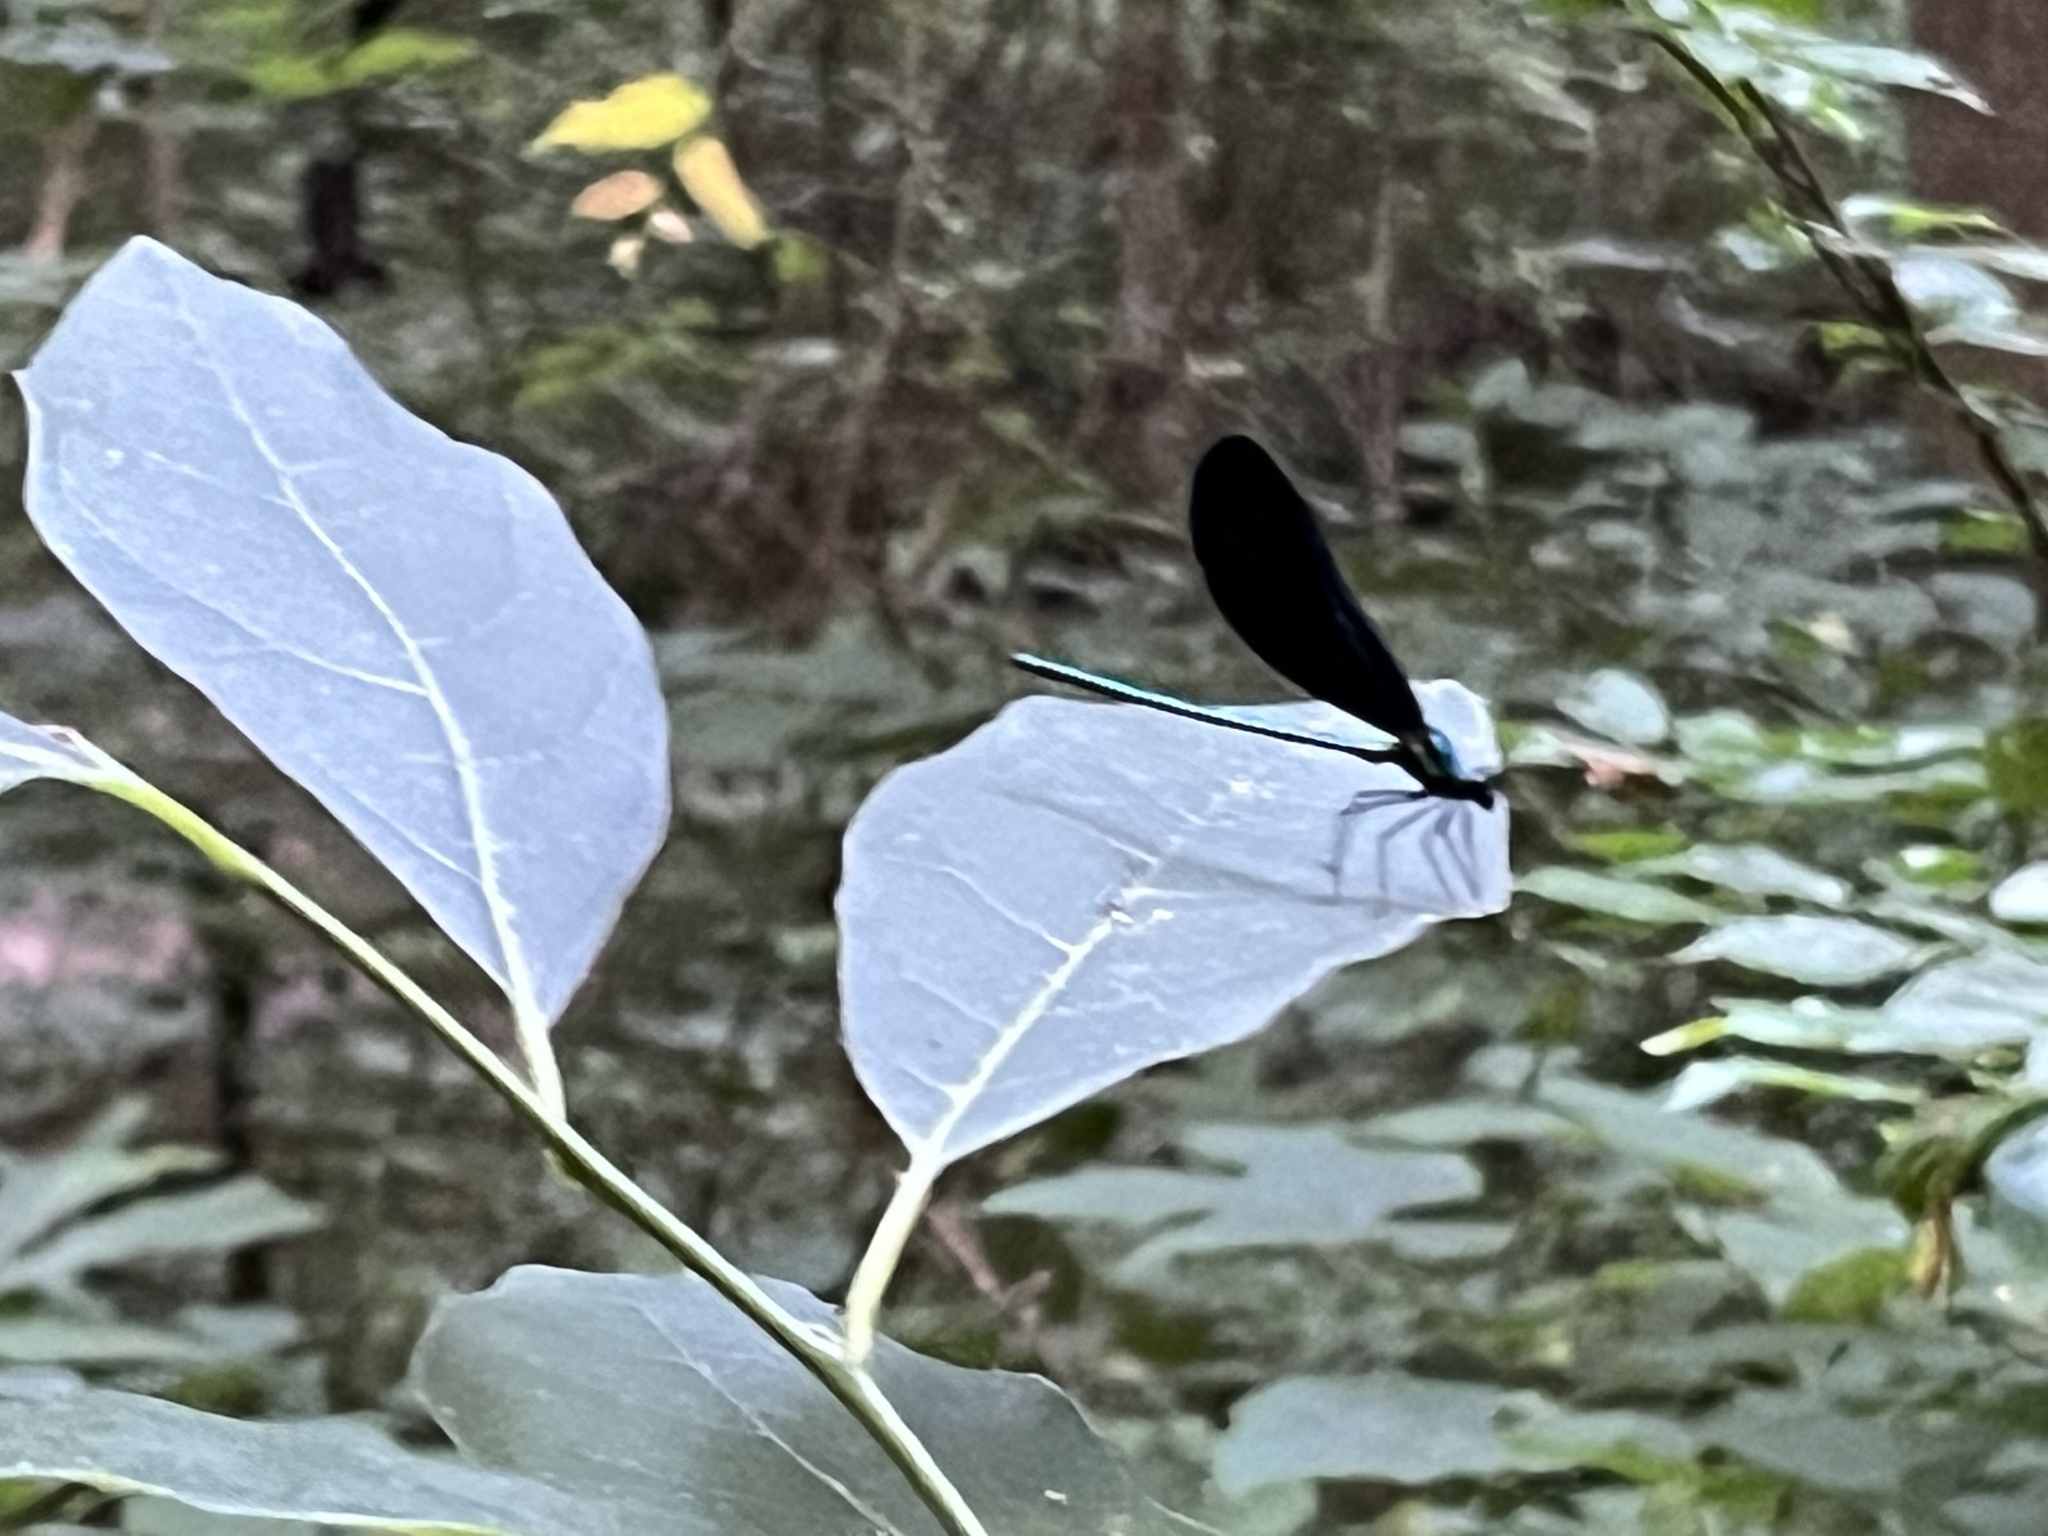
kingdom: Animalia
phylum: Arthropoda
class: Insecta
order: Odonata
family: Calopterygidae
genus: Calopteryx
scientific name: Calopteryx maculata
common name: Ebony jewelwing
